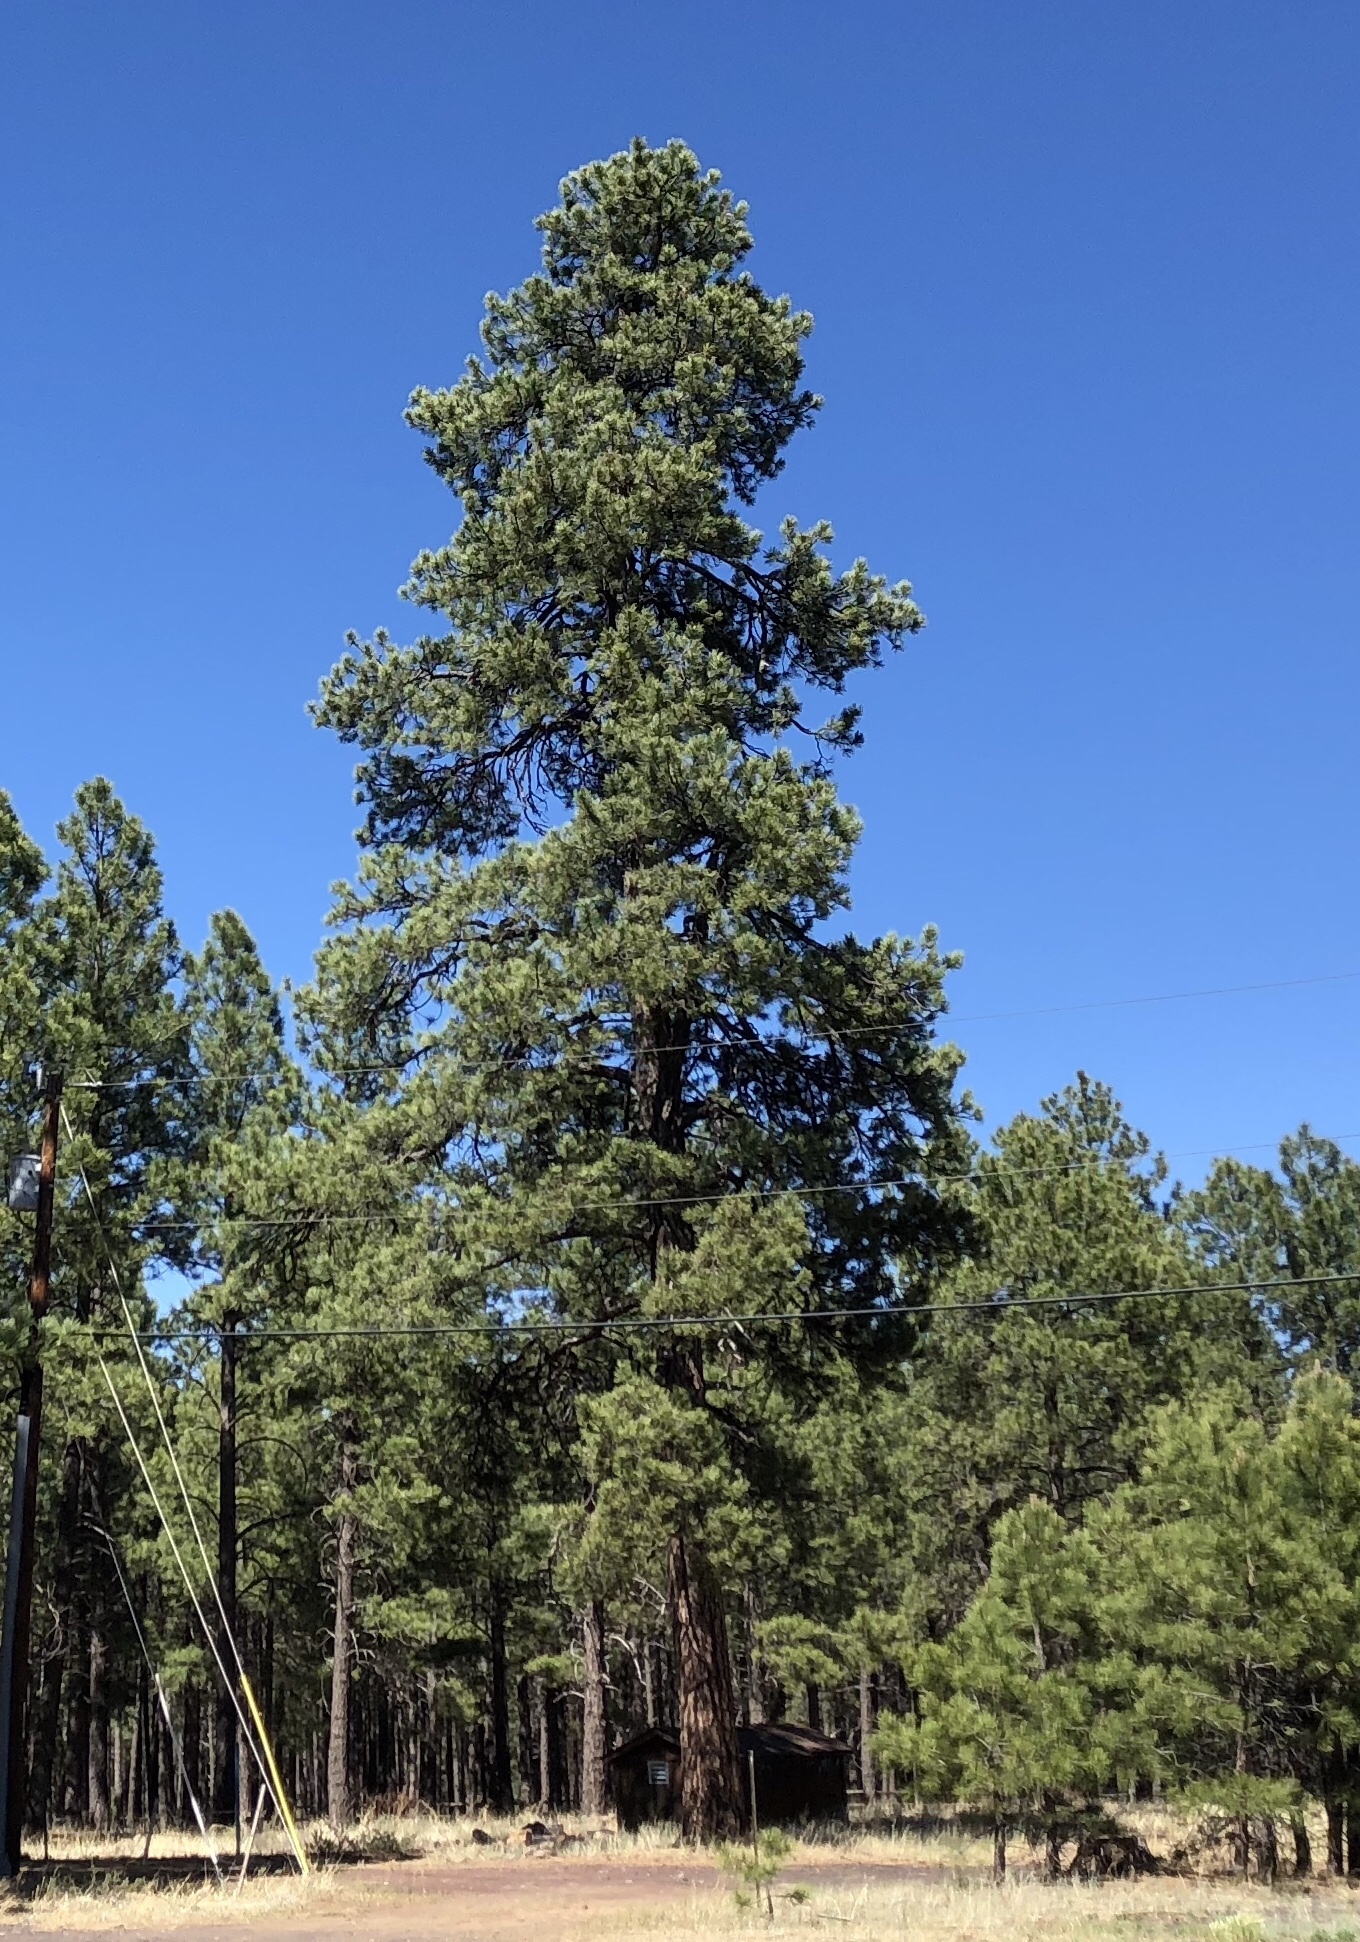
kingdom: Plantae
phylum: Tracheophyta
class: Pinopsida
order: Pinales
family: Pinaceae
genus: Pinus
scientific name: Pinus ponderosa
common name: Western yellow-pine
